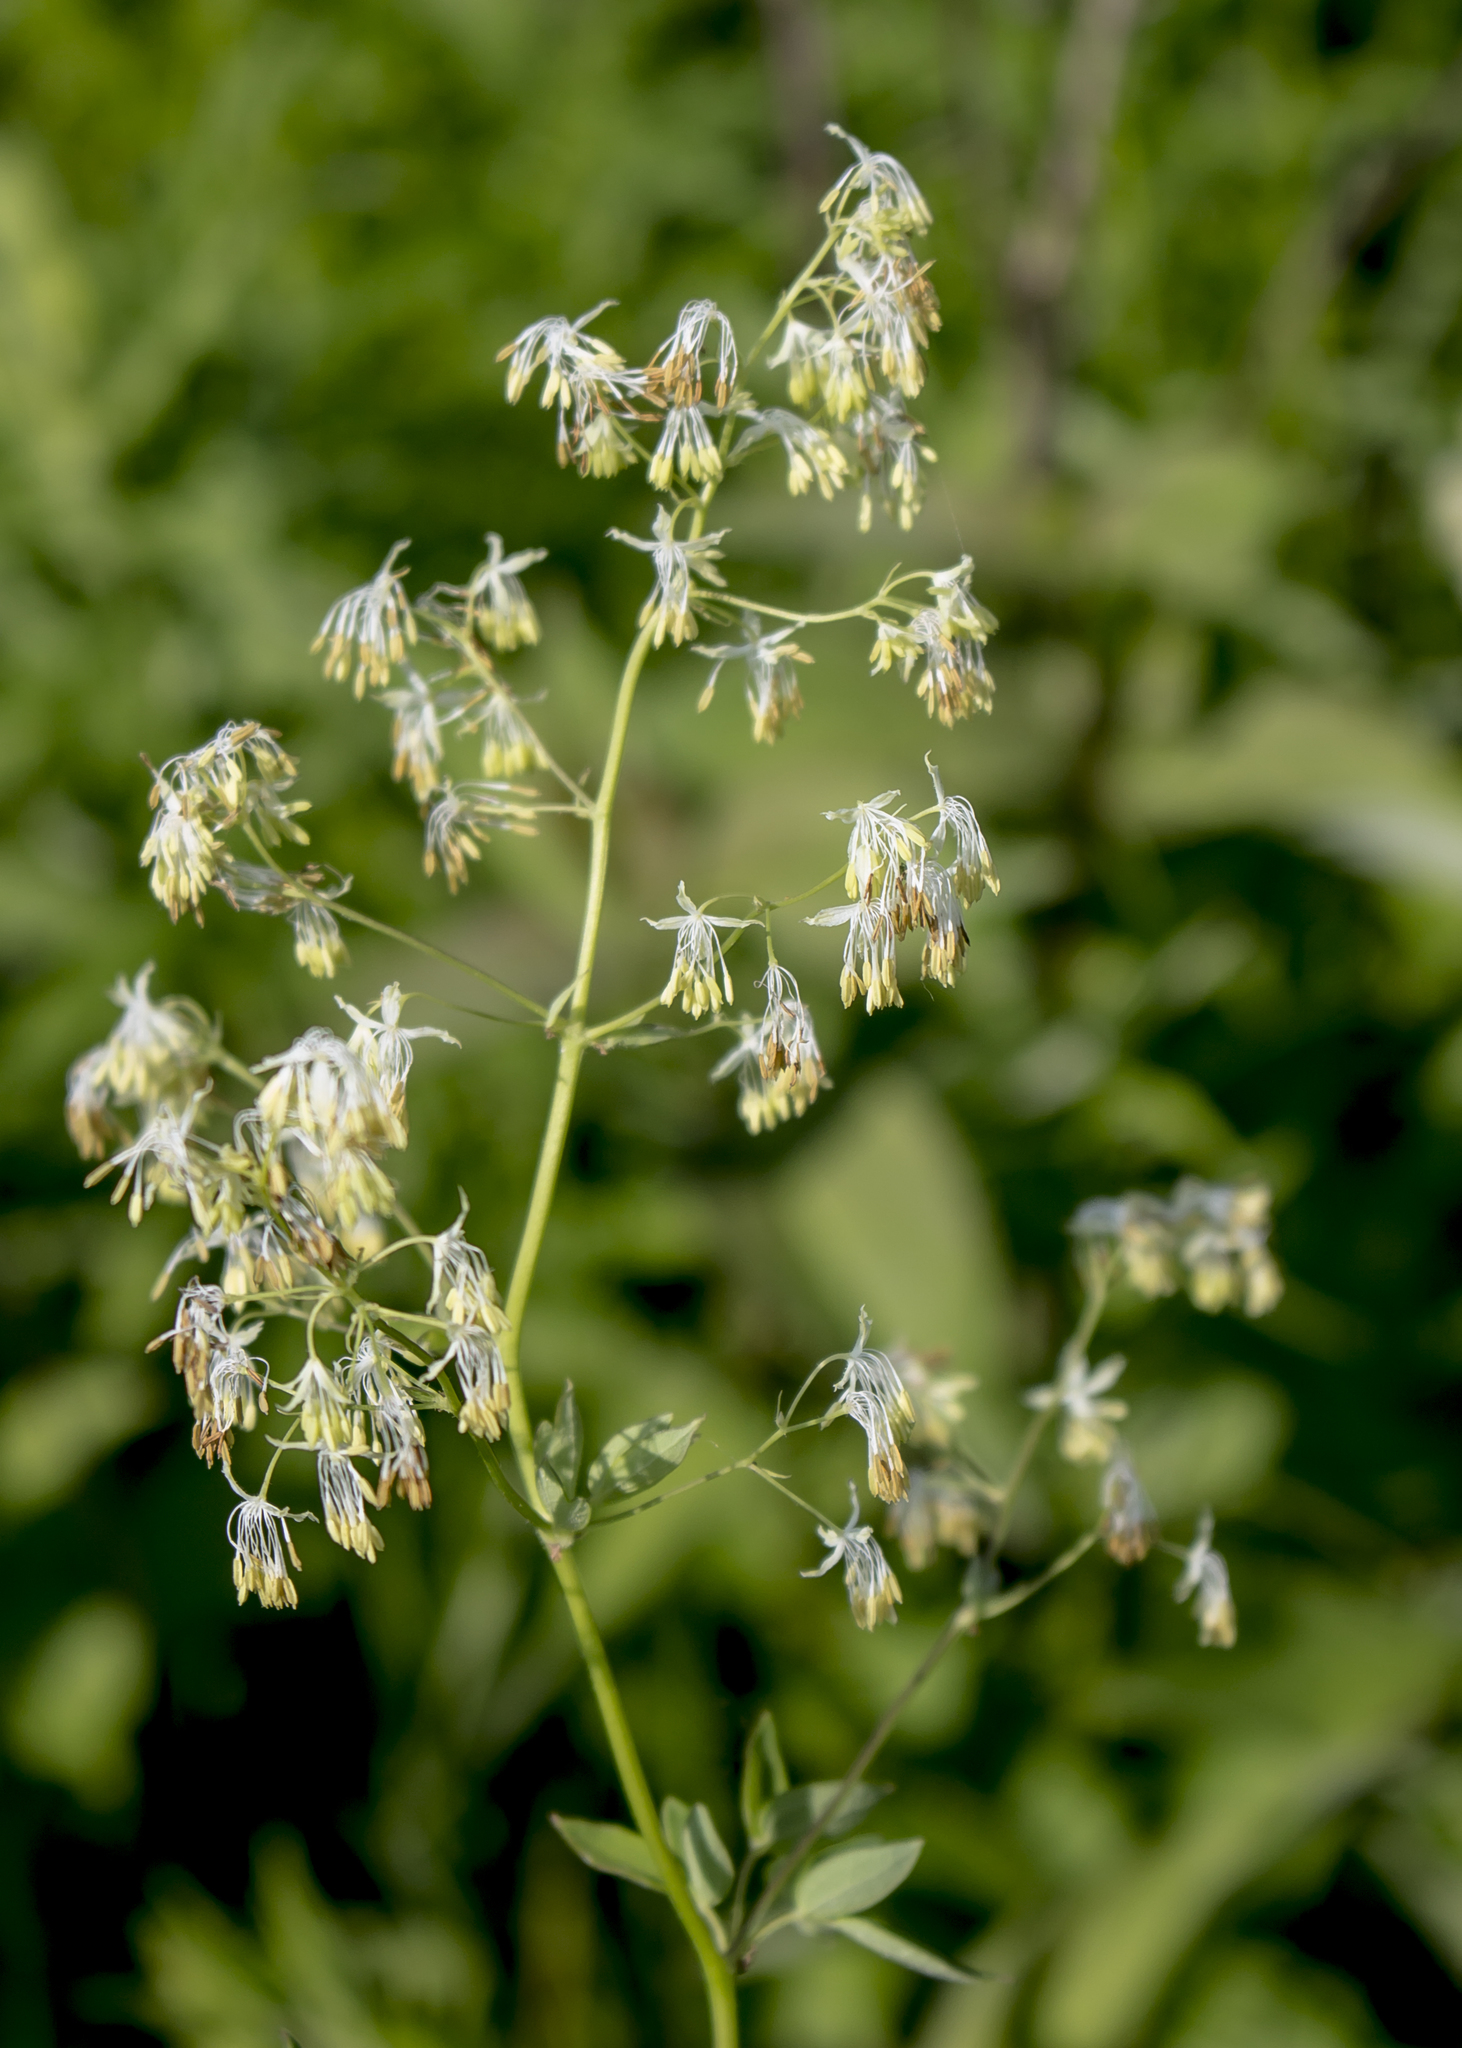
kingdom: Plantae
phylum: Tracheophyta
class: Magnoliopsida
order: Ranunculales
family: Ranunculaceae
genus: Thalictrum
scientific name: Thalictrum dasycarpum
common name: Purple meadow-rue
